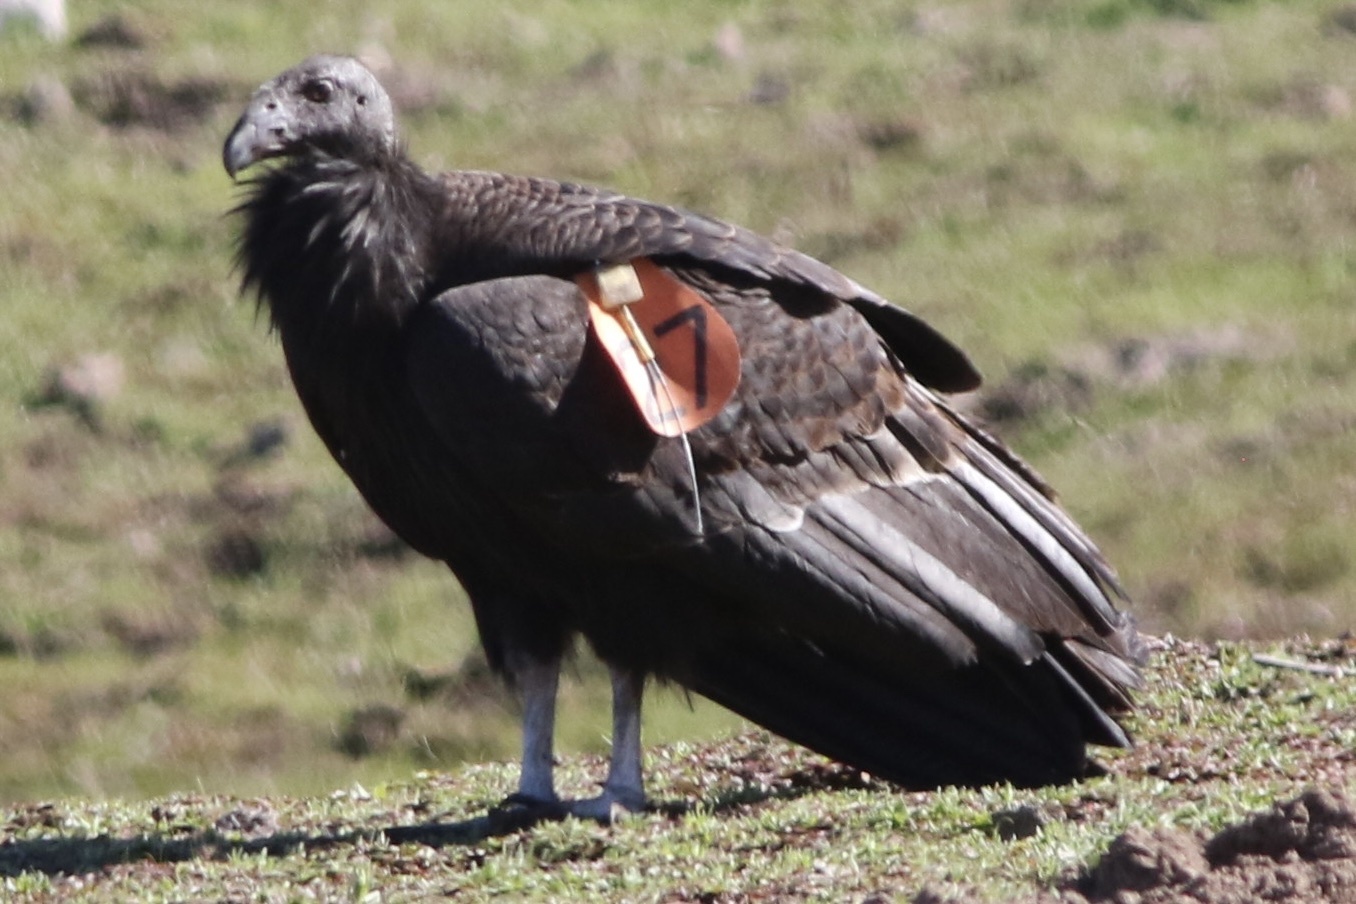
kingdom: Animalia
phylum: Chordata
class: Aves
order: Accipitriformes
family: Cathartidae
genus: Gymnogyps
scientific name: Gymnogyps californianus
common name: California condor
